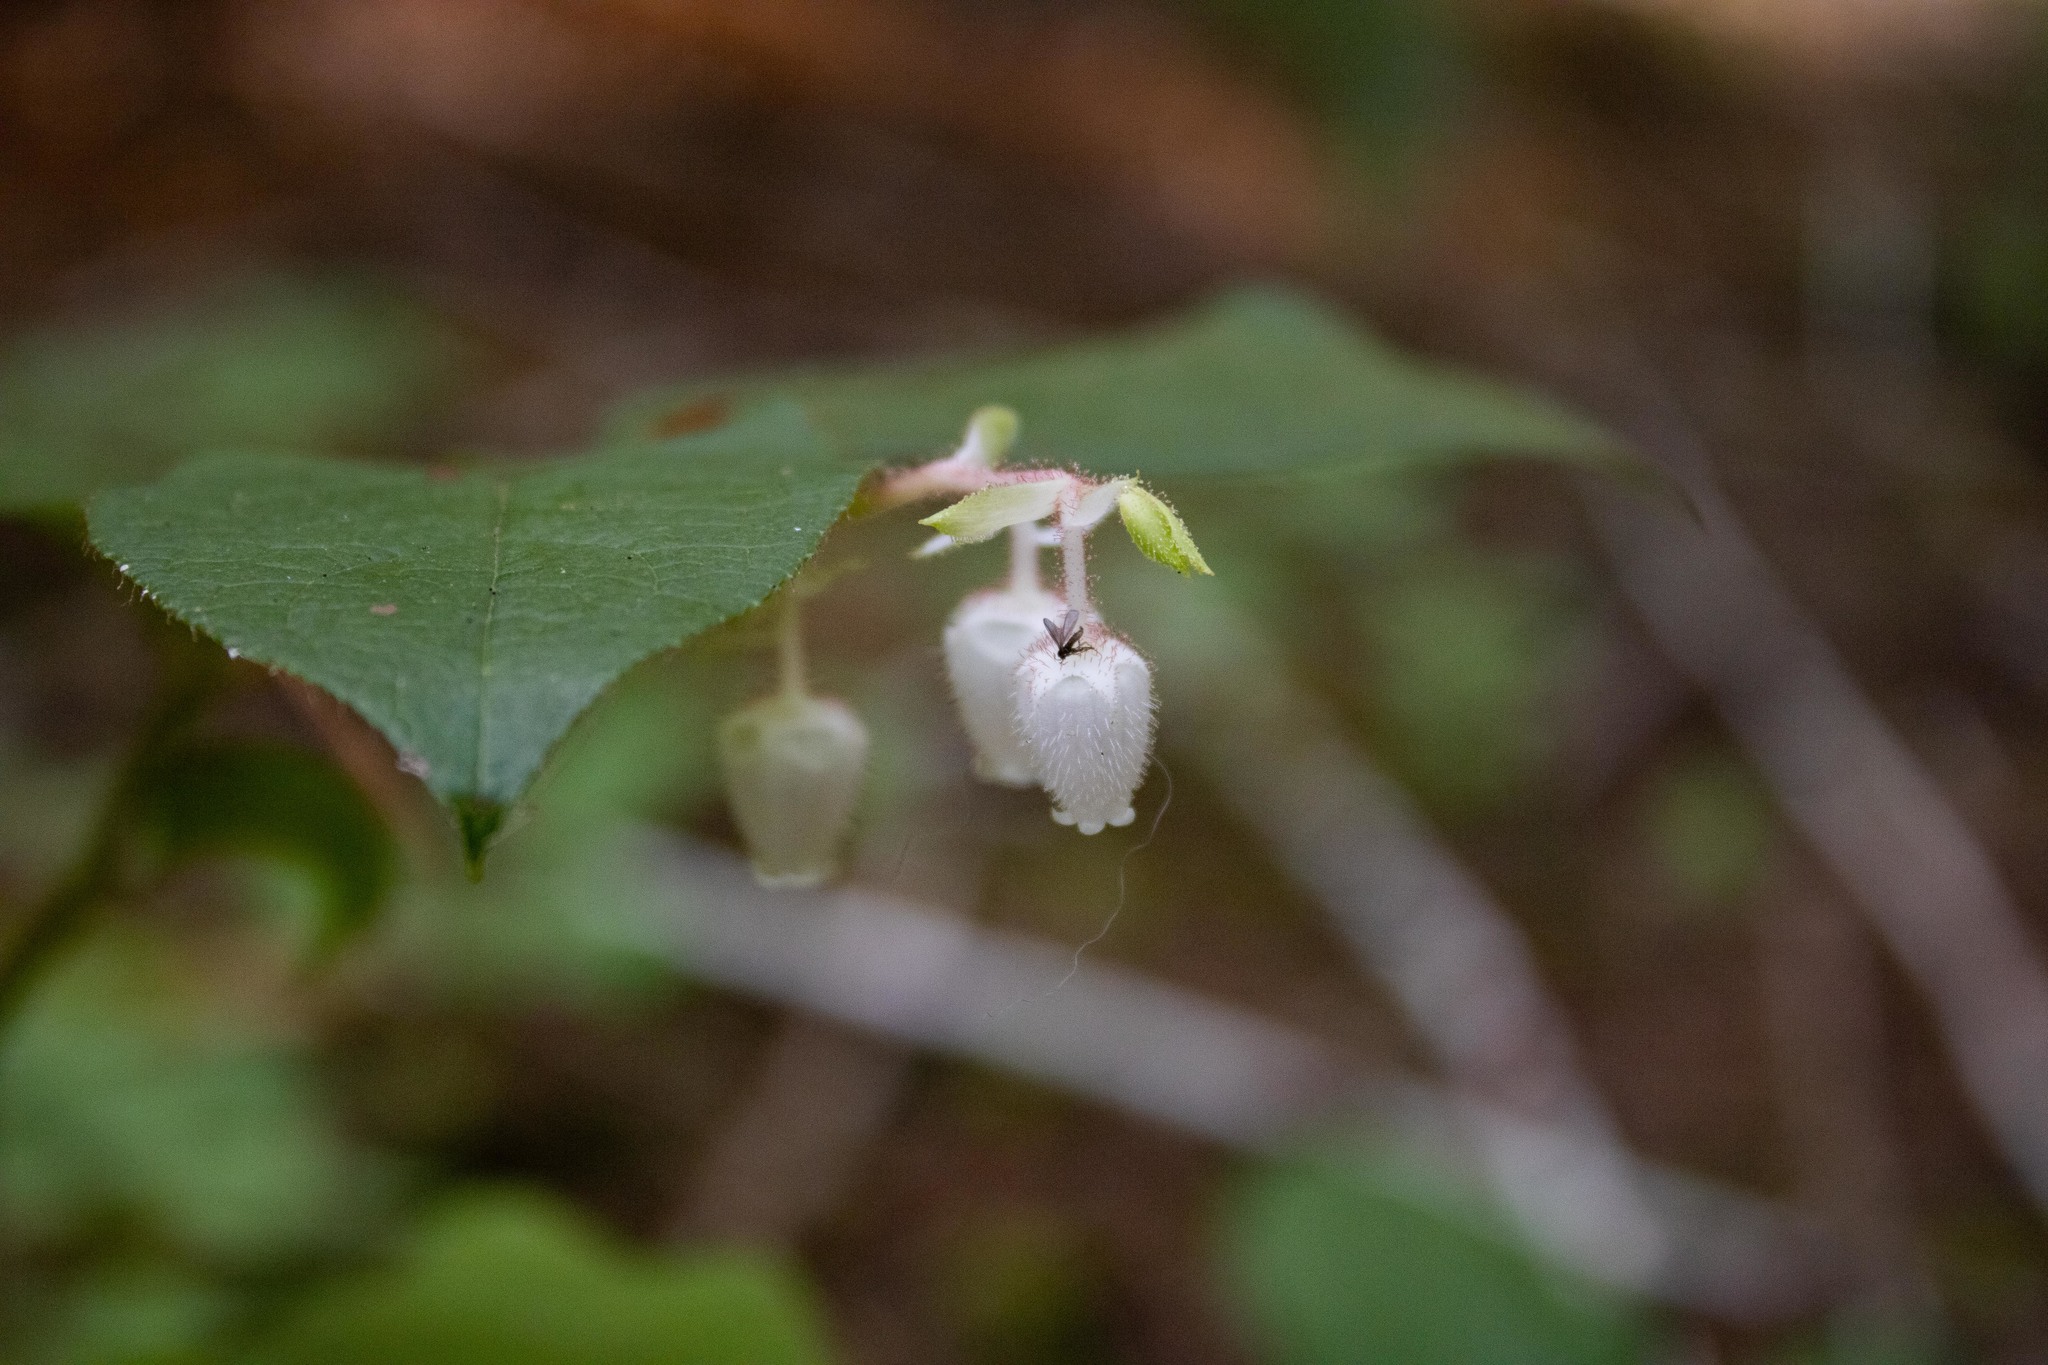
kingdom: Plantae
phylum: Tracheophyta
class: Magnoliopsida
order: Ericales
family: Ericaceae
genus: Gaultheria
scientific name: Gaultheria shallon
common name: Shallon
